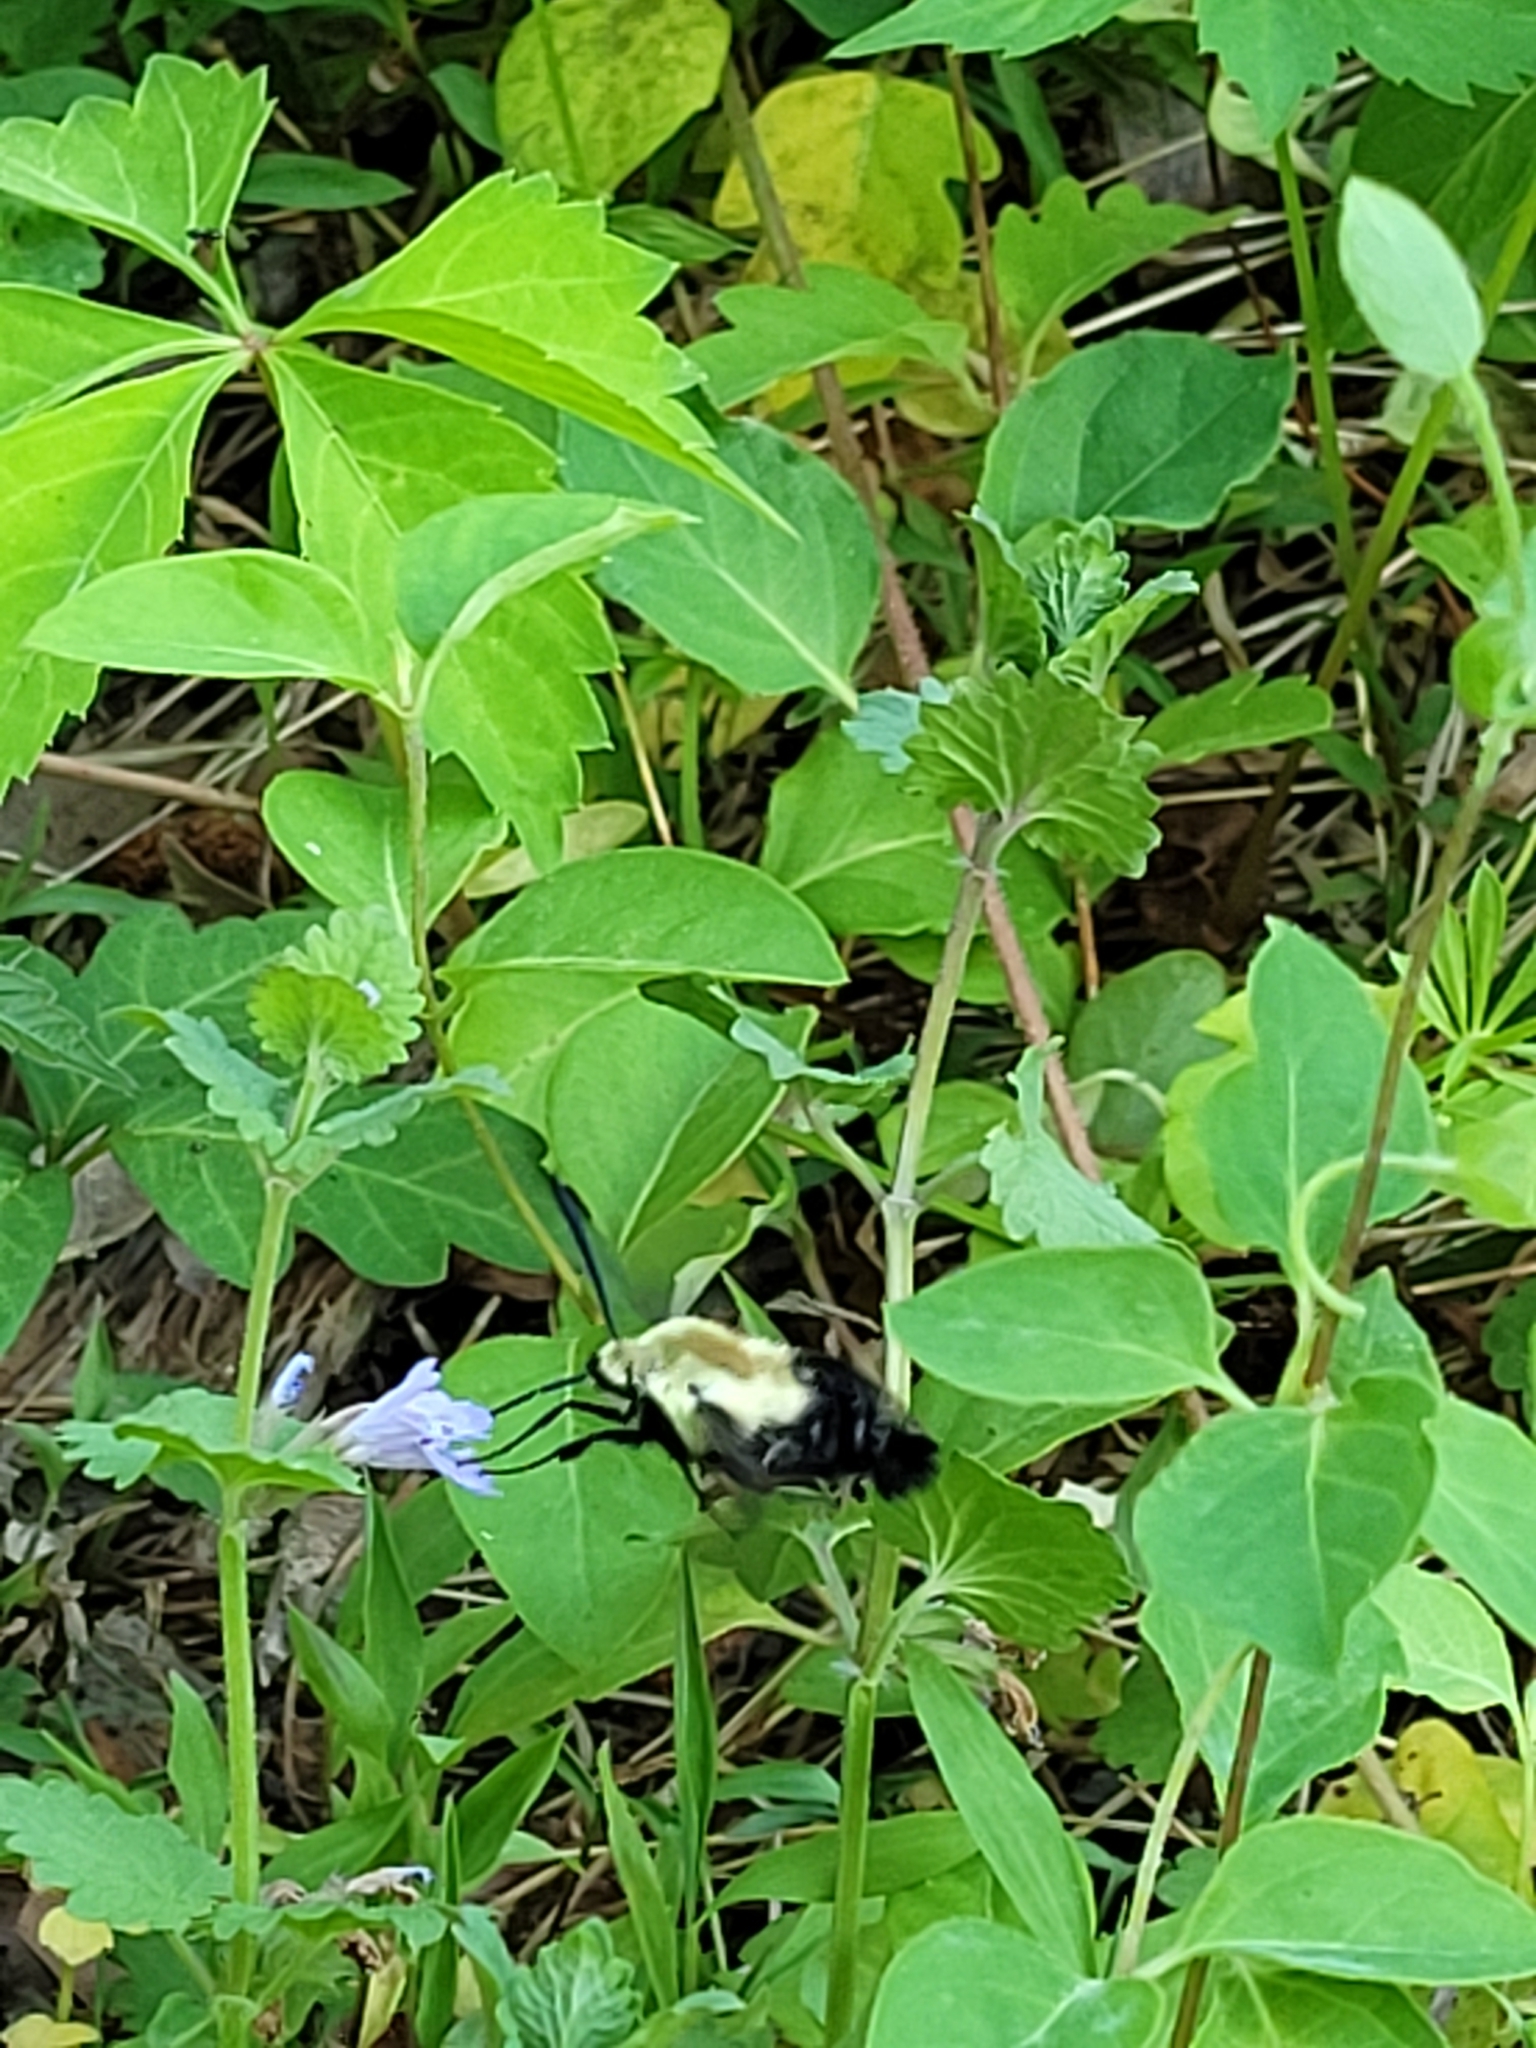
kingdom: Animalia
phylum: Arthropoda
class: Insecta
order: Lepidoptera
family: Sphingidae
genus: Hemaris
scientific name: Hemaris diffinis
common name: Bumblebee moth
